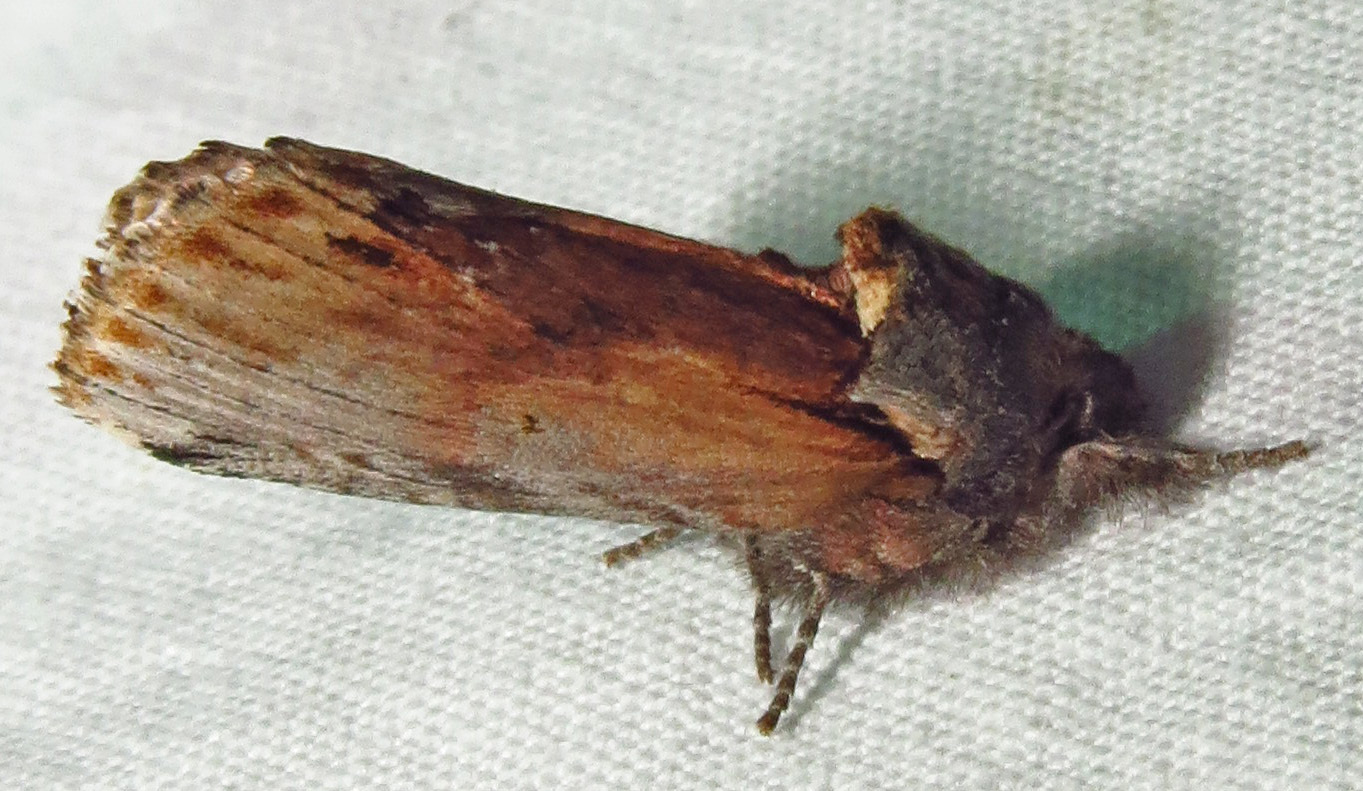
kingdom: Animalia
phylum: Arthropoda
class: Insecta
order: Lepidoptera
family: Notodontidae
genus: Schizura
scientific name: Schizura
